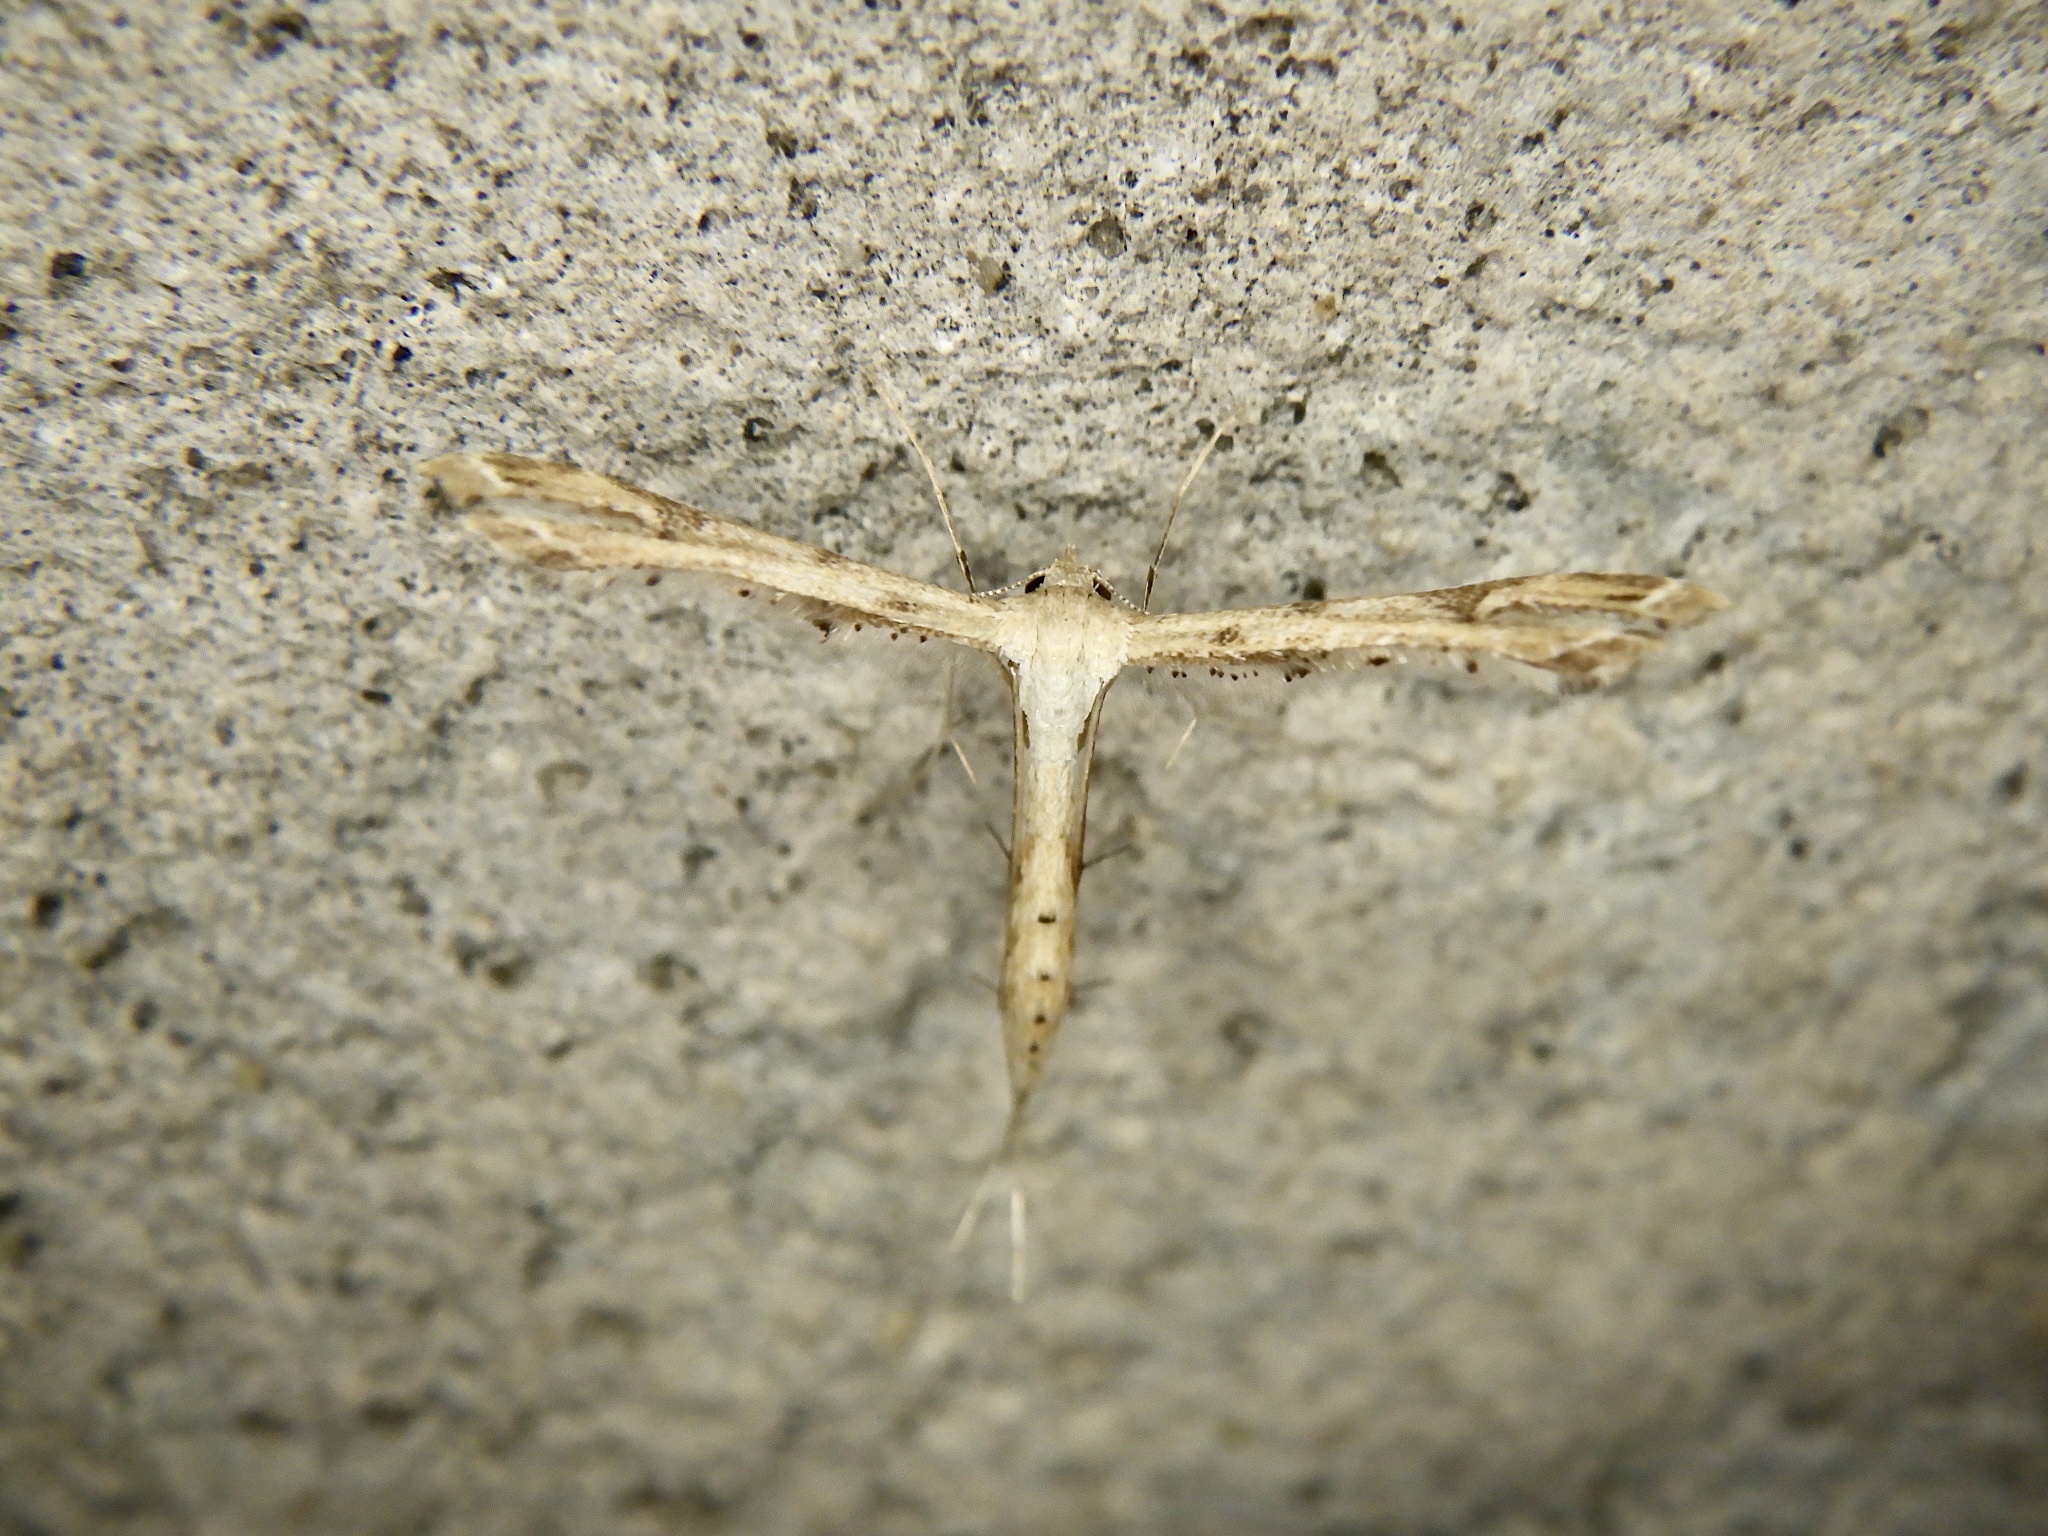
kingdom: Animalia
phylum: Arthropoda
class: Insecta
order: Lepidoptera
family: Pterophoridae
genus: Stenoptilodes
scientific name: Stenoptilodes taprobanes
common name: Moth
